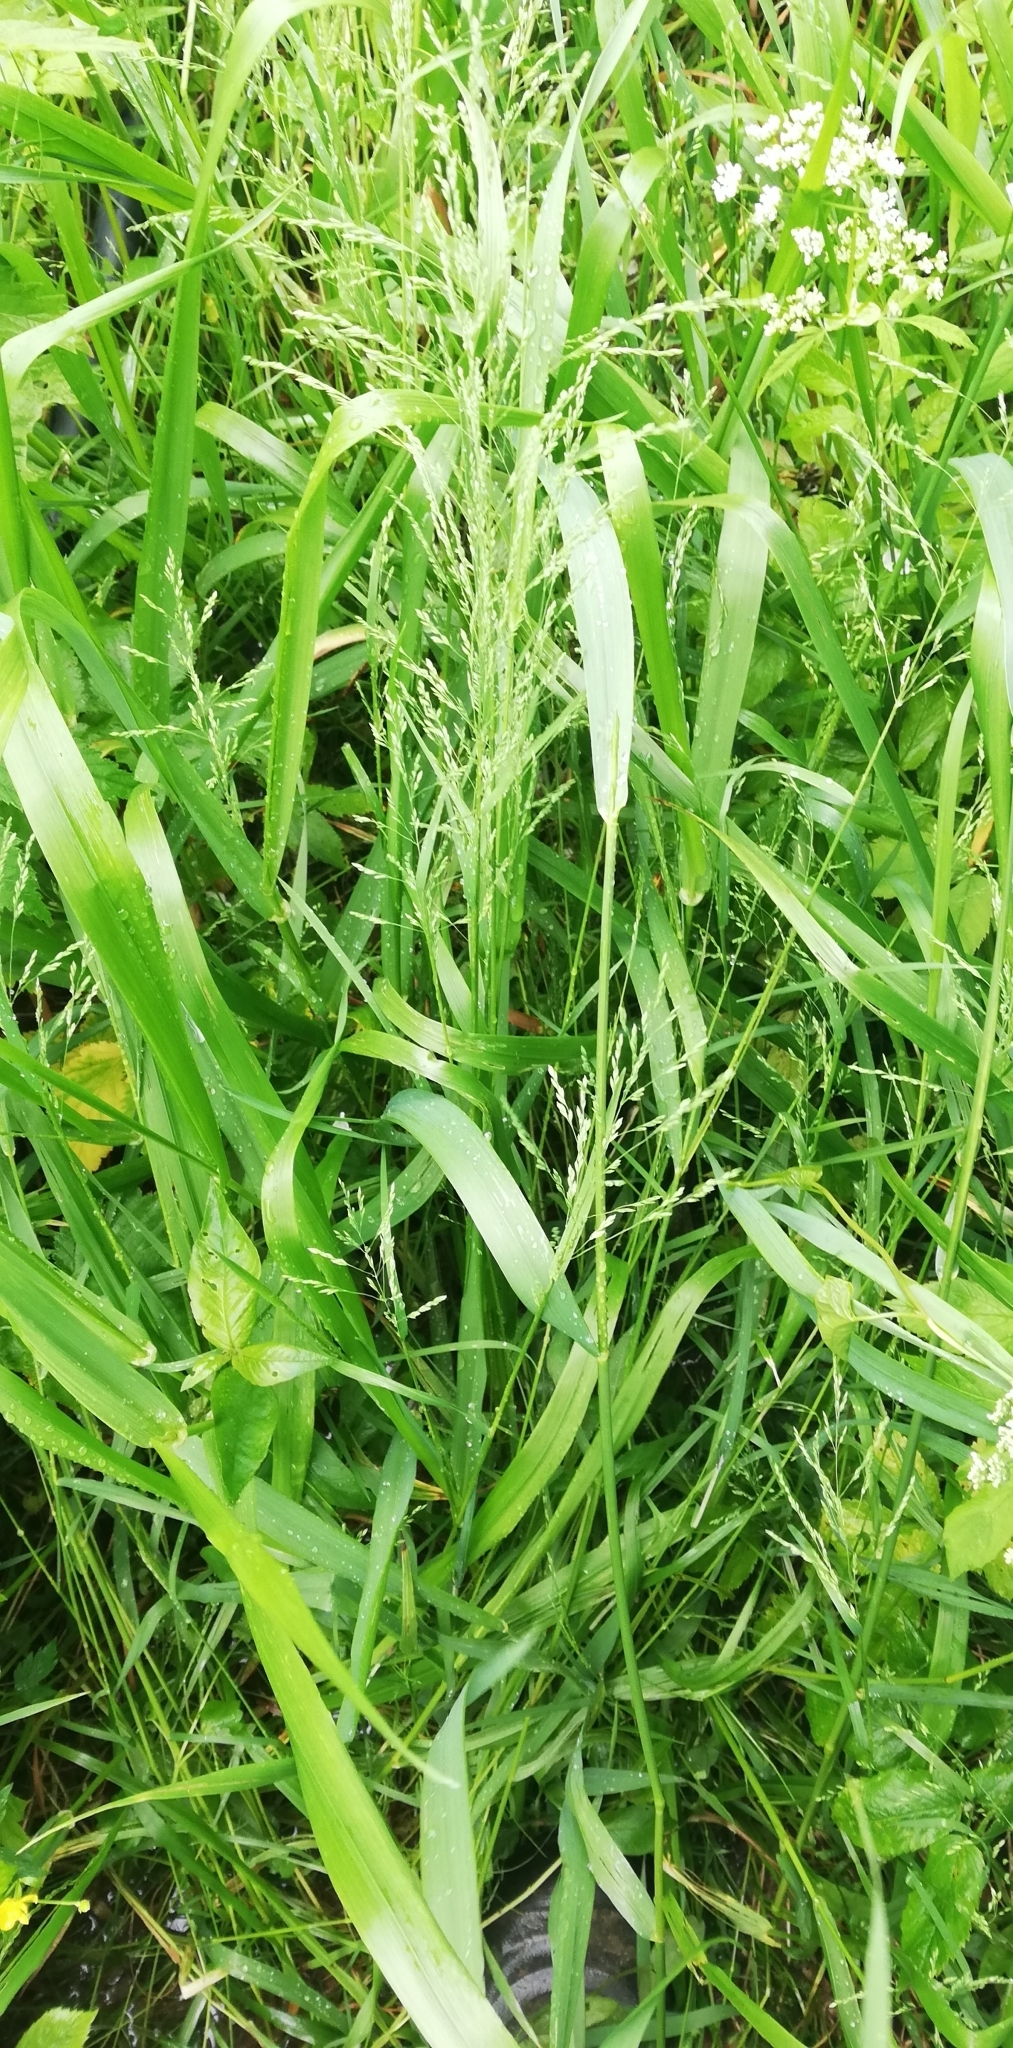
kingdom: Plantae
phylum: Tracheophyta
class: Liliopsida
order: Poales
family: Poaceae
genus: Poa
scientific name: Poa trivialis
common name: Rough bluegrass
